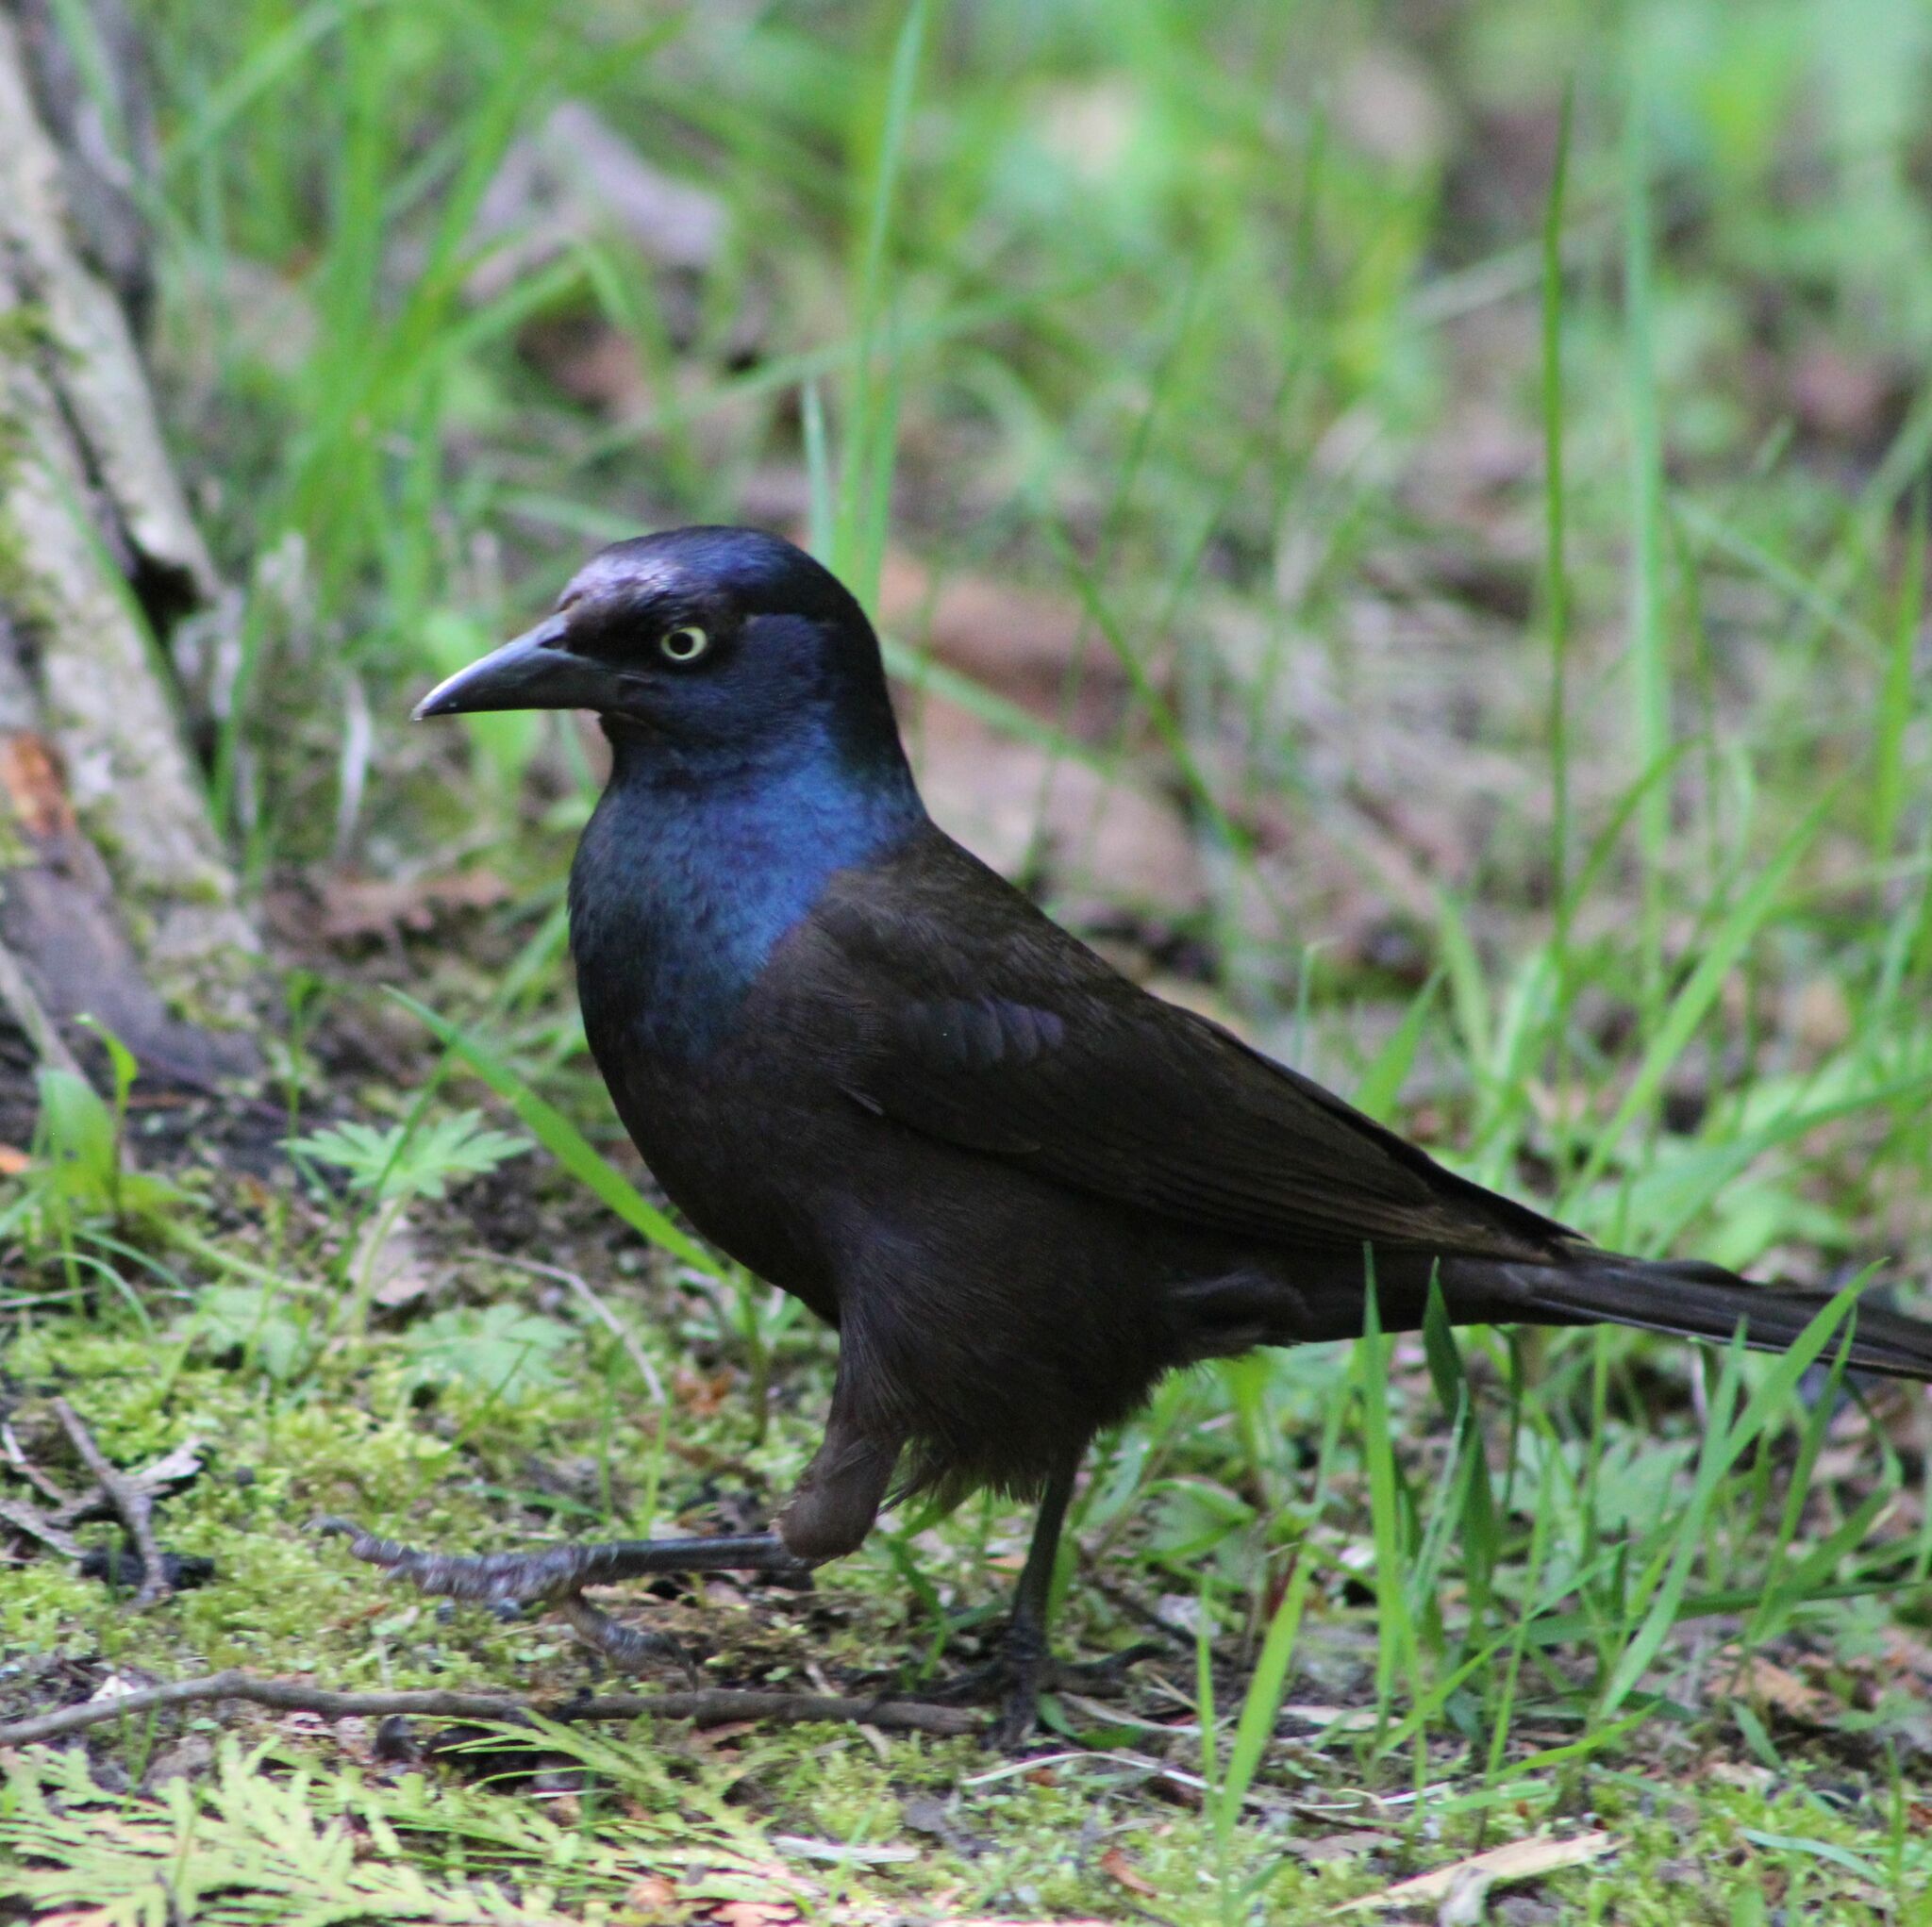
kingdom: Animalia
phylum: Chordata
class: Aves
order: Passeriformes
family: Icteridae
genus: Quiscalus
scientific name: Quiscalus quiscula
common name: Common grackle
